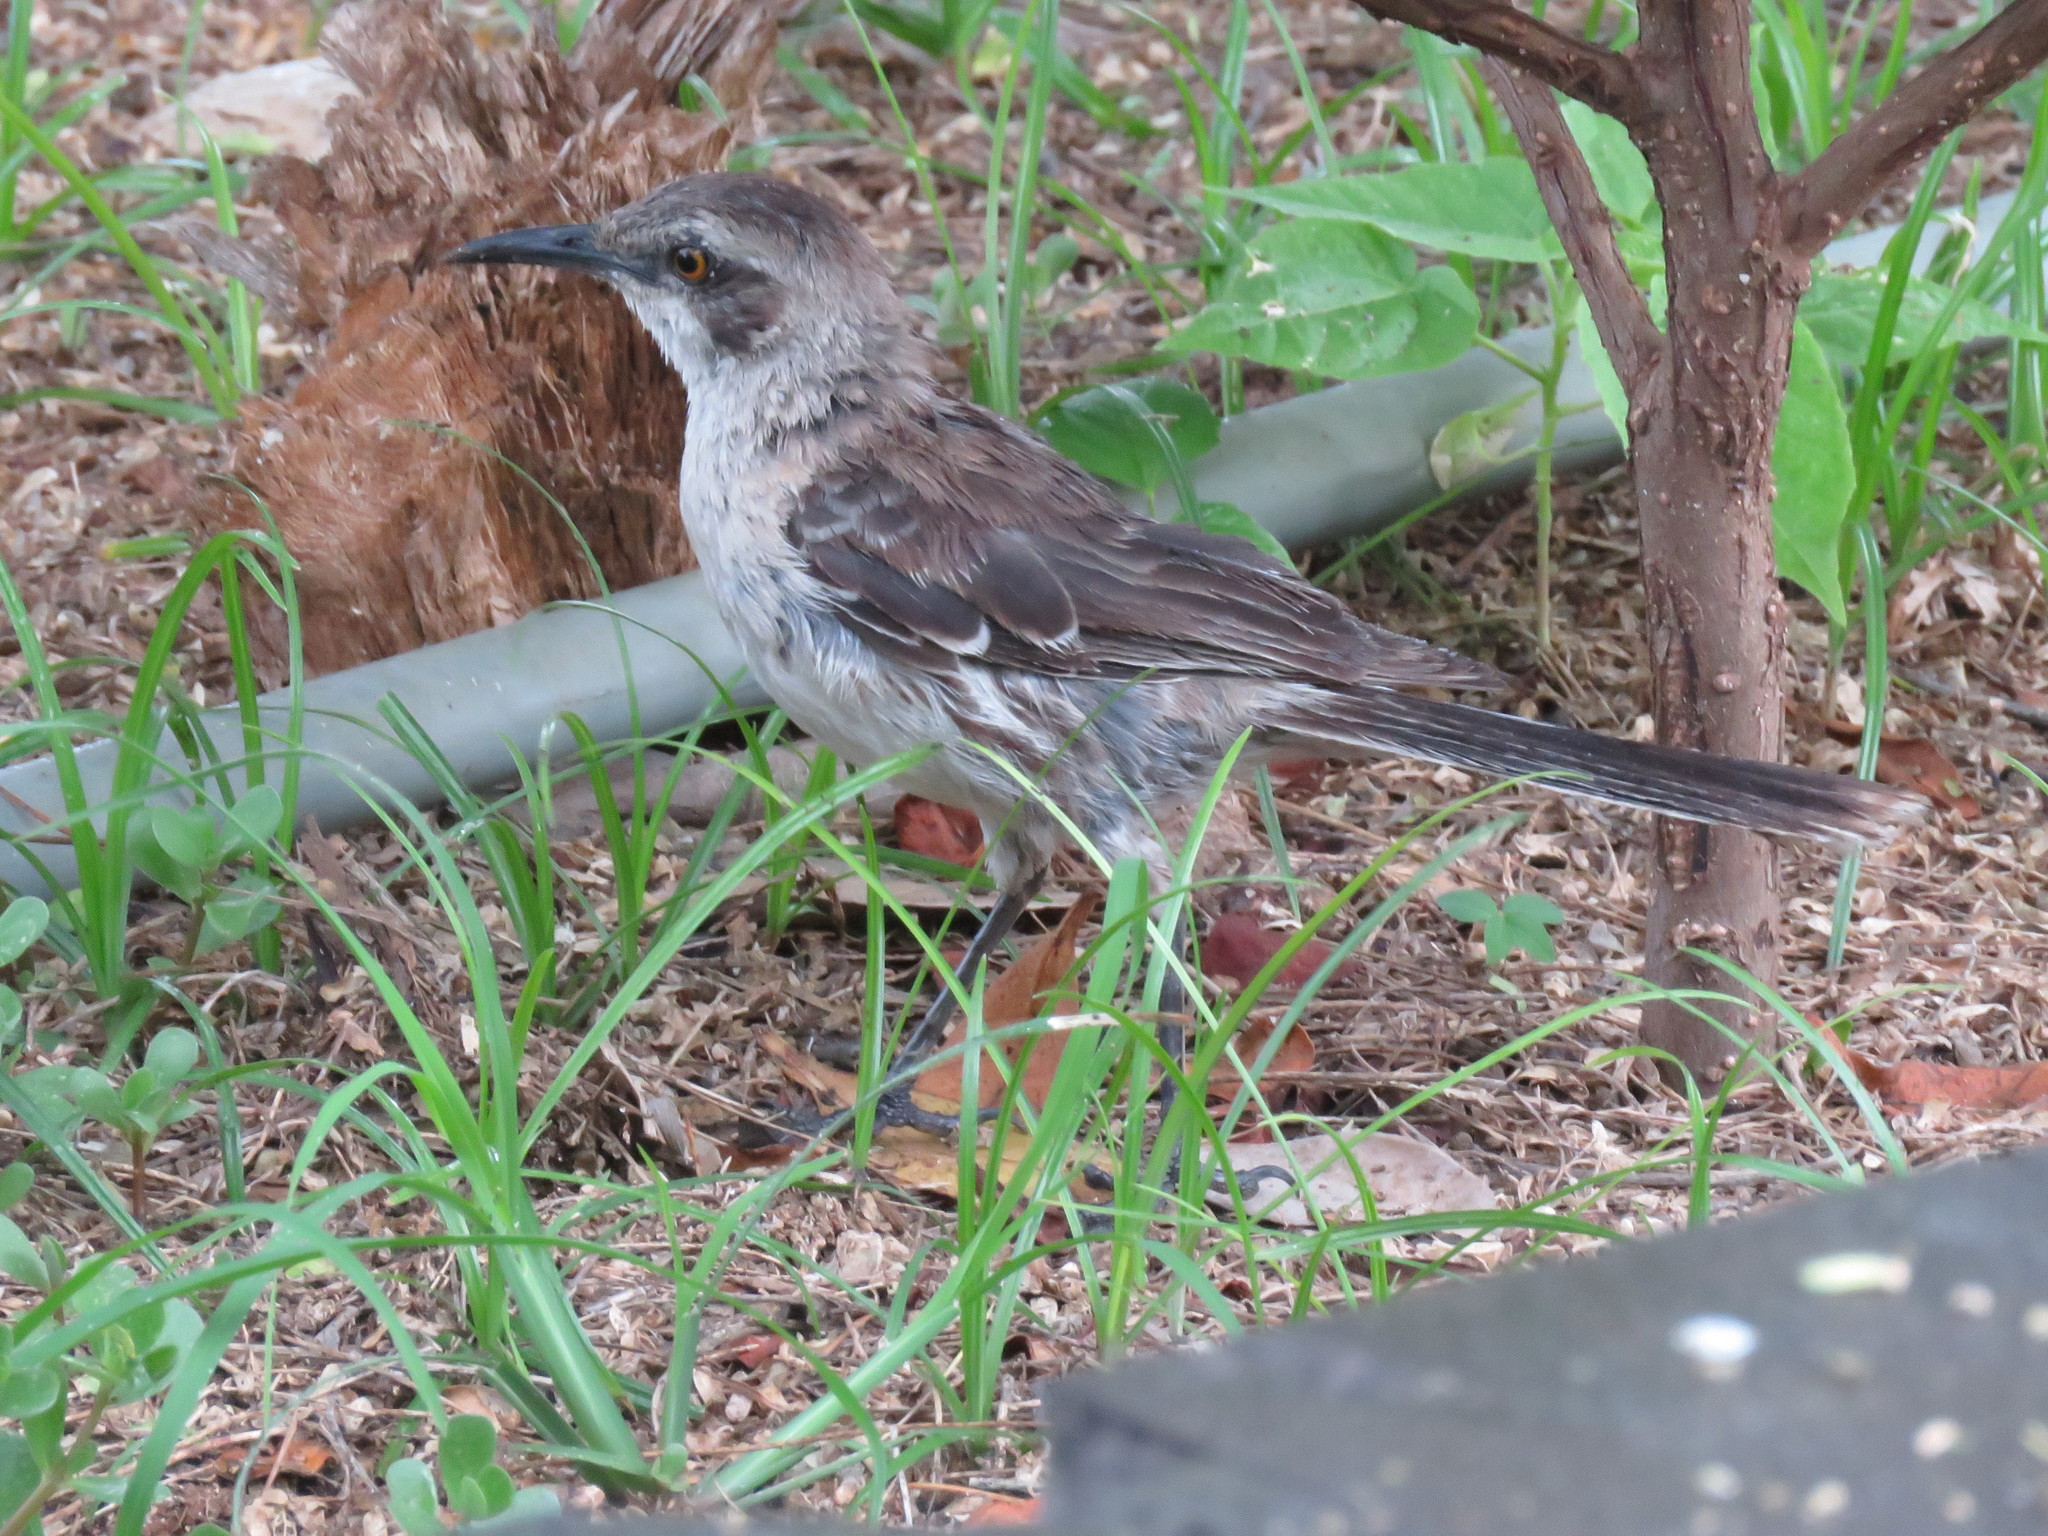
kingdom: Animalia
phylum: Chordata
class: Aves
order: Passeriformes
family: Mimidae
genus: Mimus
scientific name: Mimus melanotis
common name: San cristobal mockingbird
